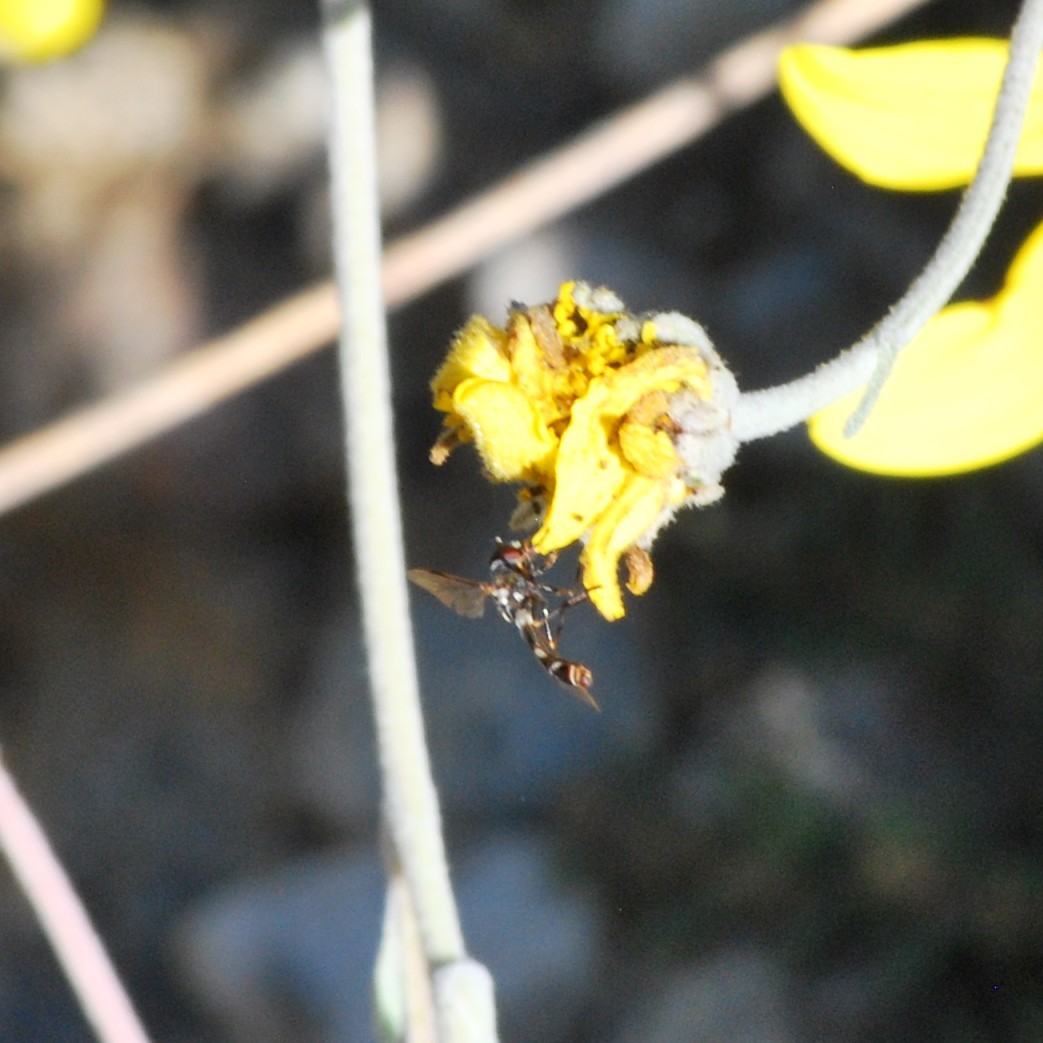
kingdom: Animalia
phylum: Arthropoda
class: Insecta
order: Diptera
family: Syrphidae
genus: Dioprosopa
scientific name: Dioprosopa clavatus
